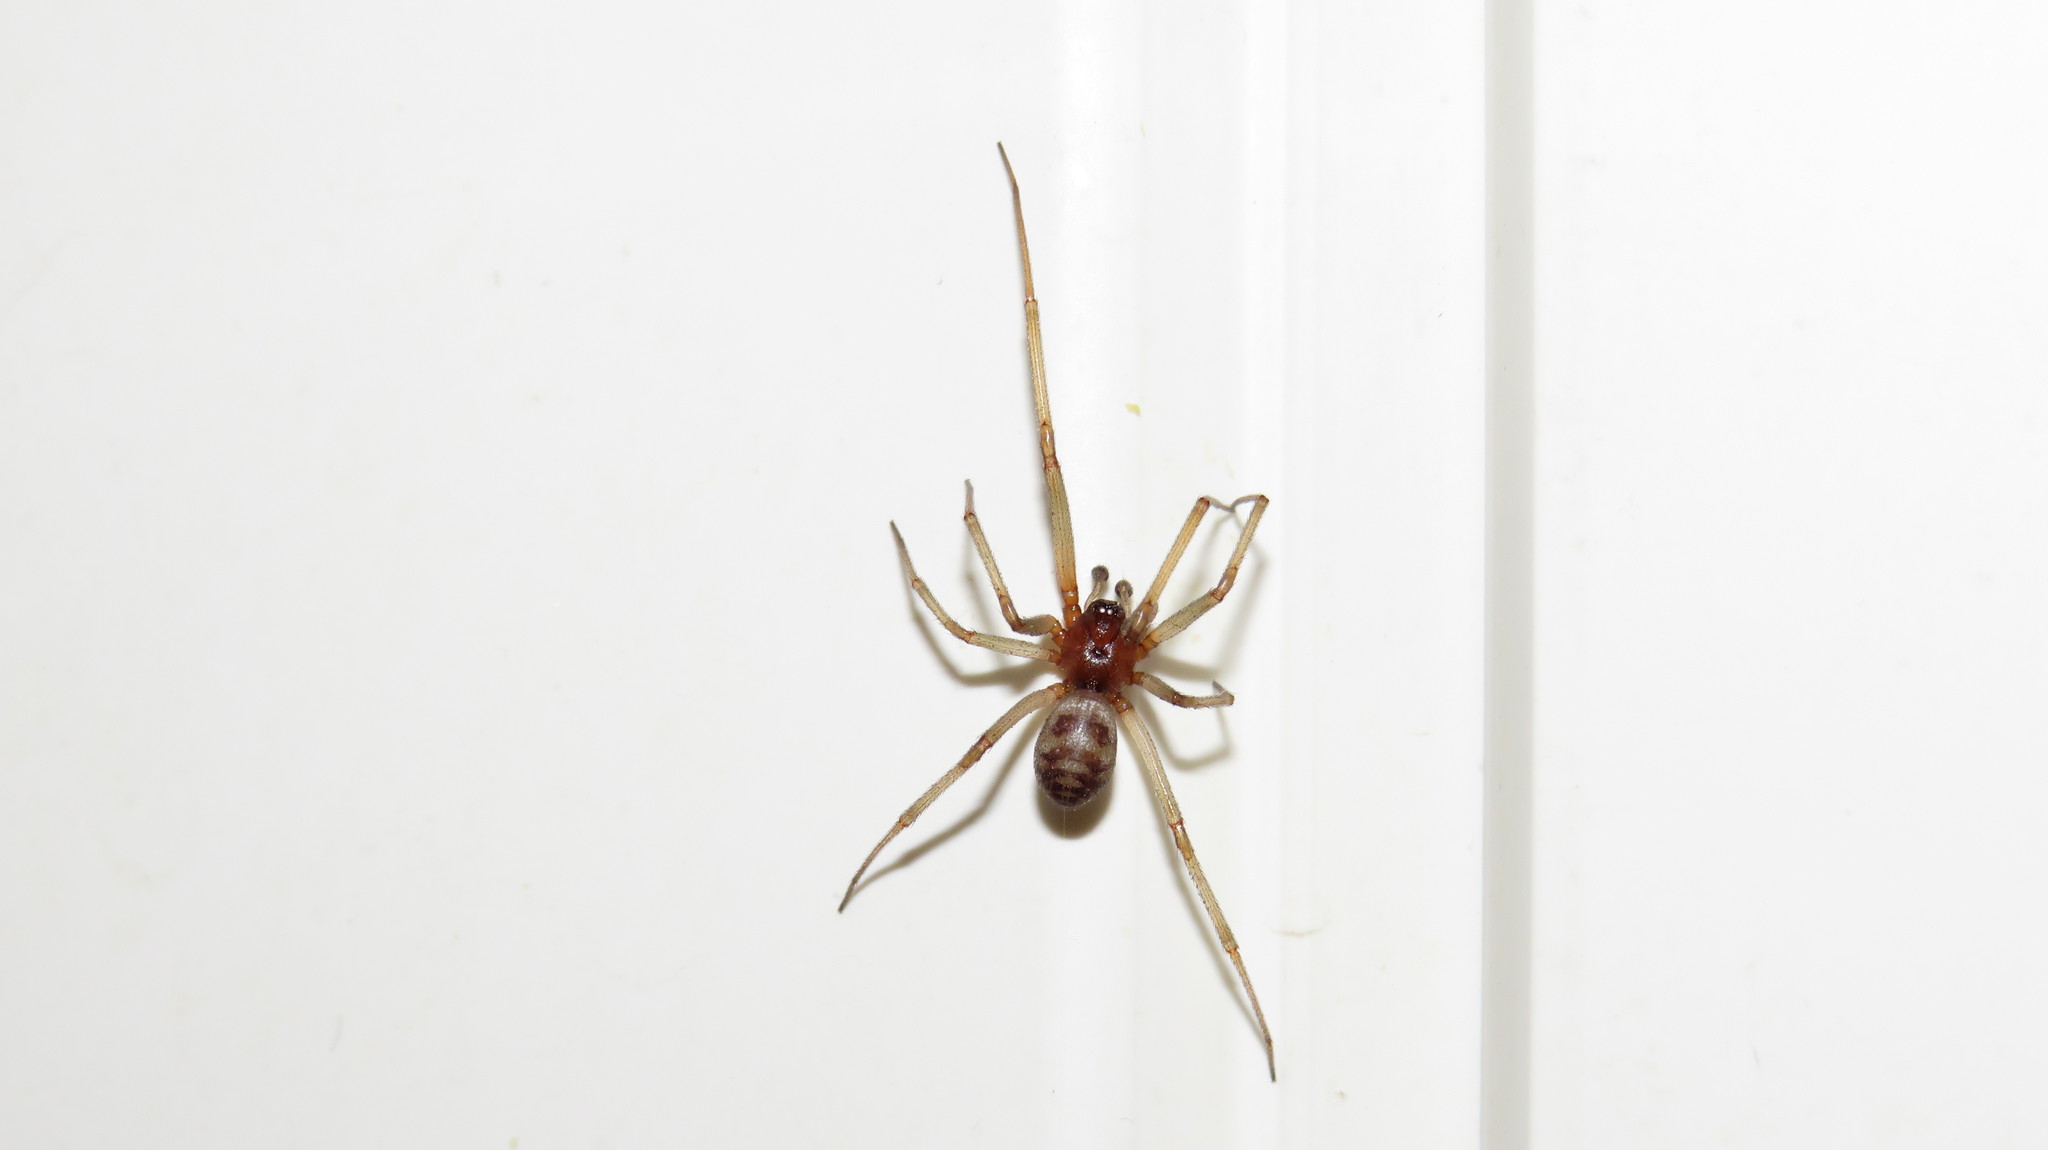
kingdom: Animalia
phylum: Arthropoda
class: Arachnida
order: Araneae
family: Theridiidae
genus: Steatoda
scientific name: Steatoda grossa
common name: False black widow
